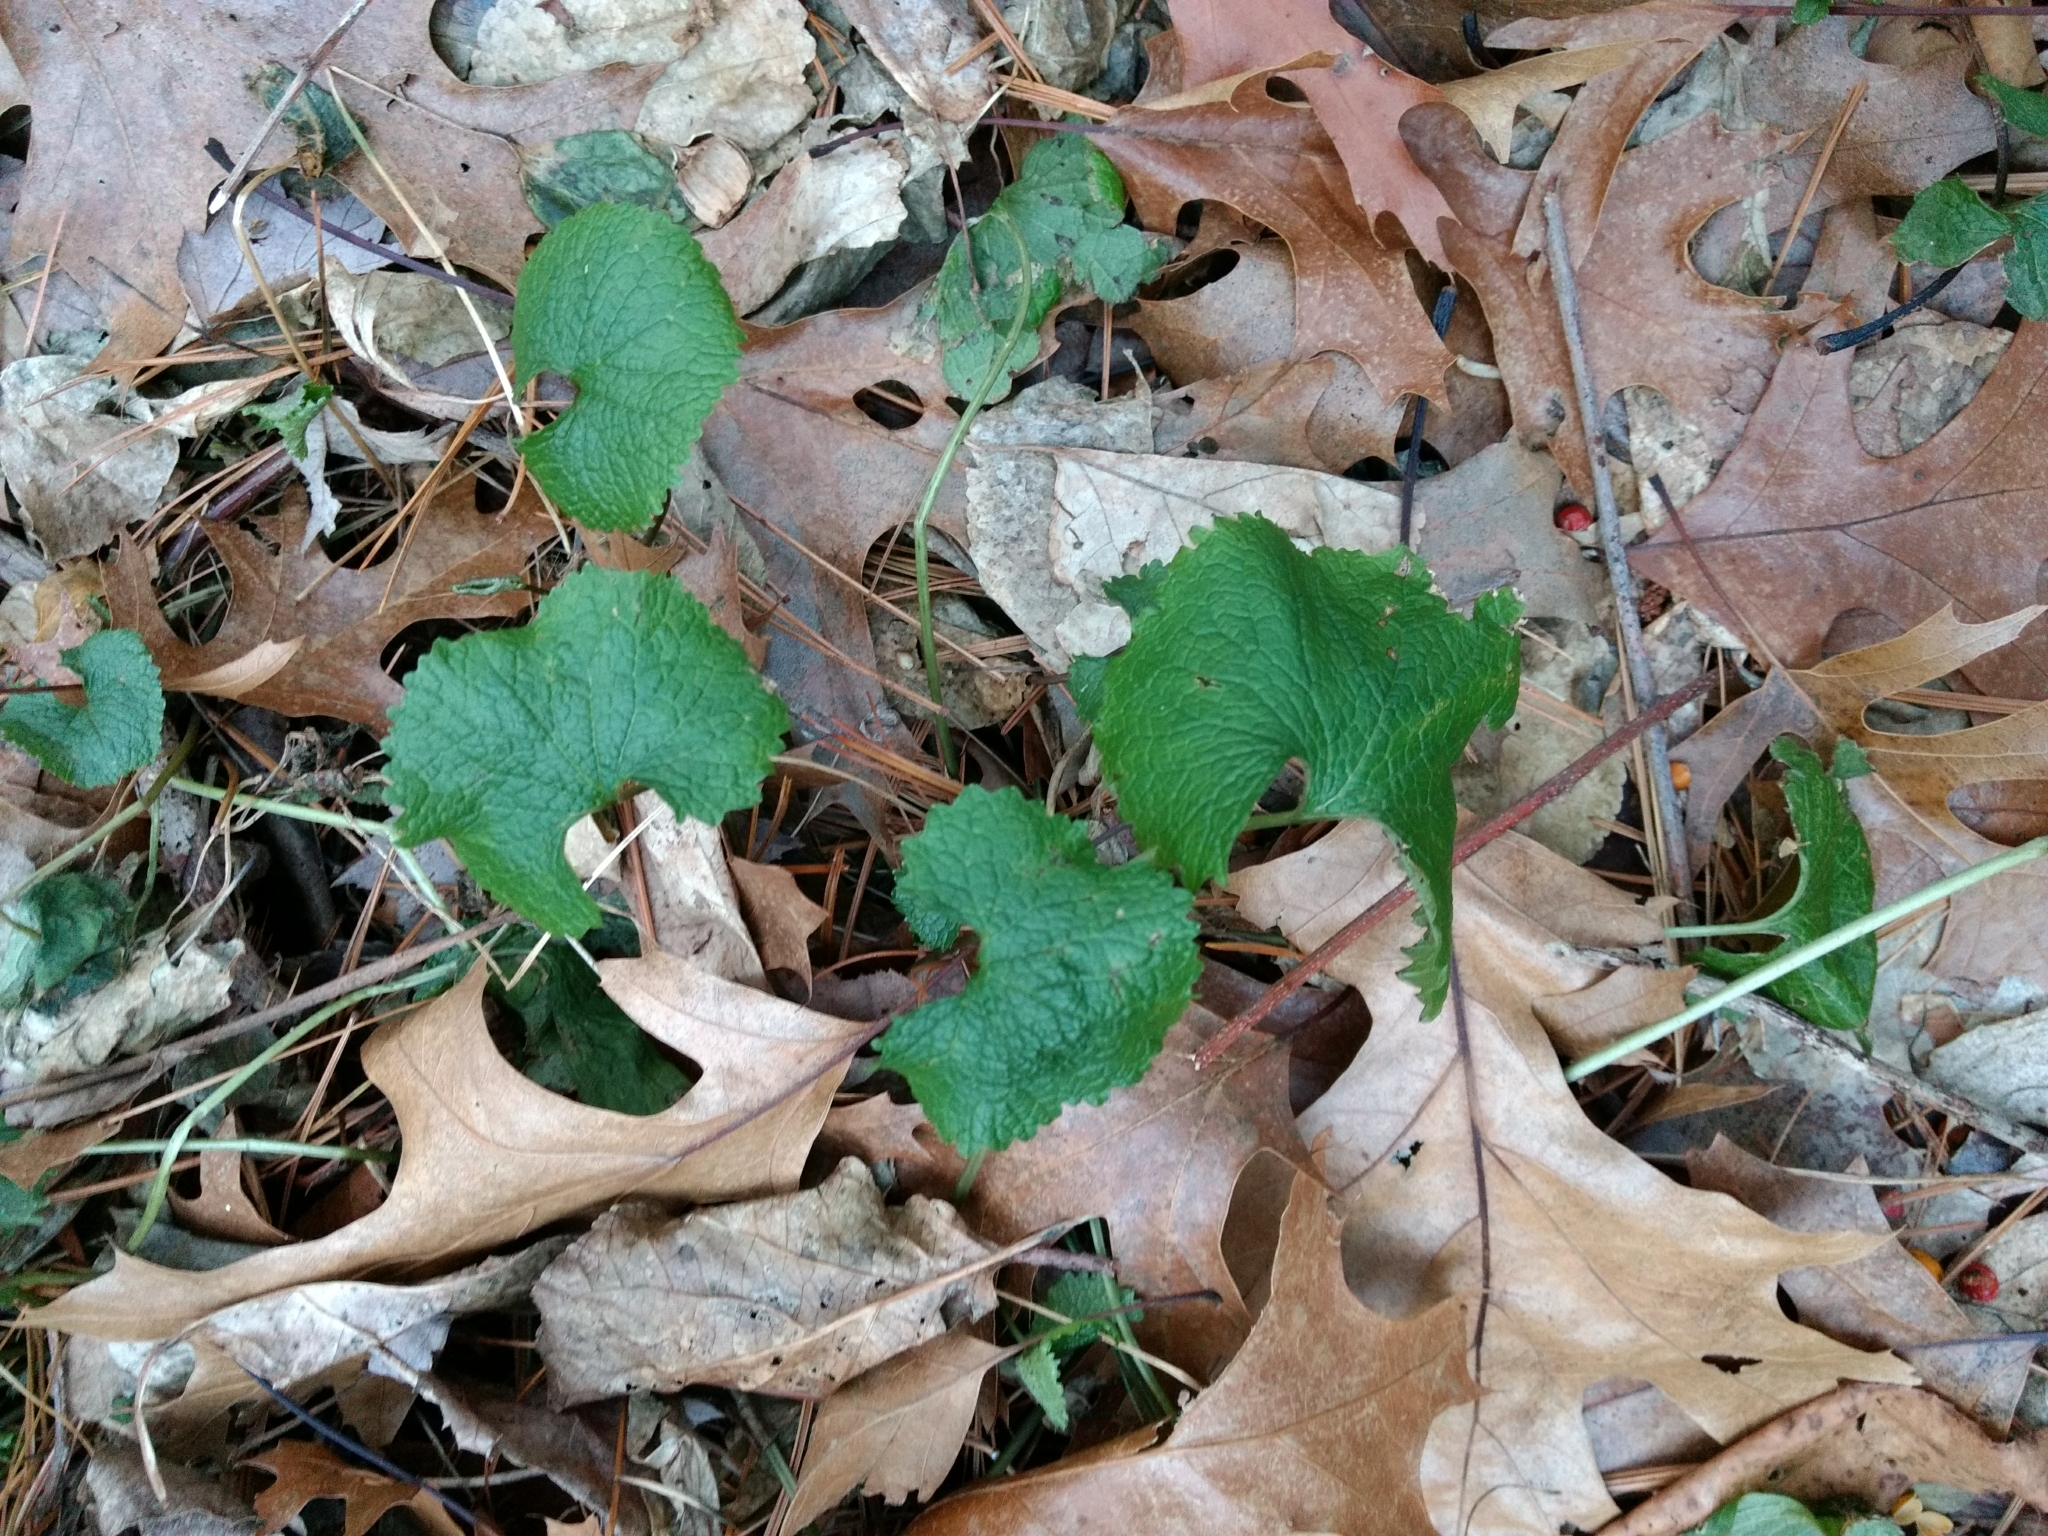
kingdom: Plantae
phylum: Tracheophyta
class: Magnoliopsida
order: Brassicales
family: Brassicaceae
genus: Alliaria
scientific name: Alliaria petiolata
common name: Garlic mustard
